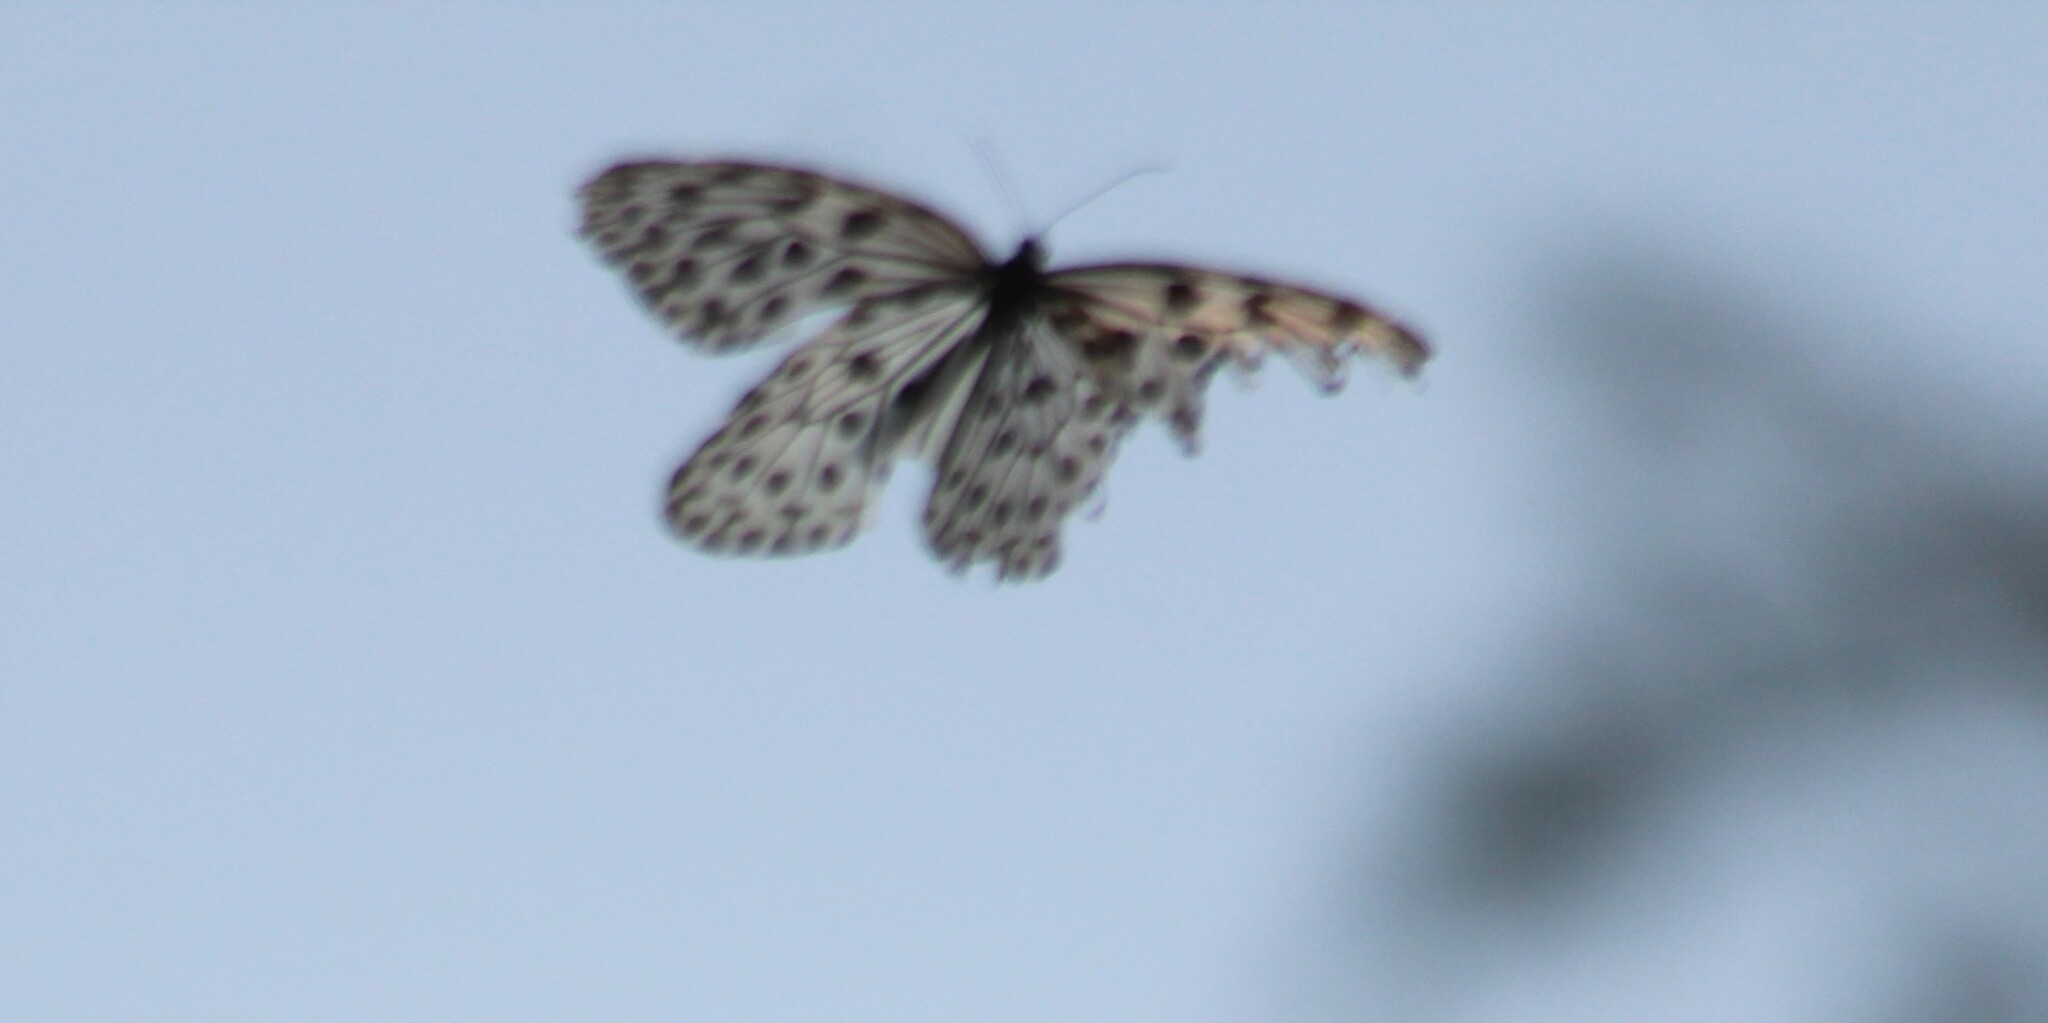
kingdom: Animalia
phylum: Arthropoda
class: Insecta
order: Lepidoptera
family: Nymphalidae
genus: Idea
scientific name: Idea malabarica
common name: Malabar tree-nymph
